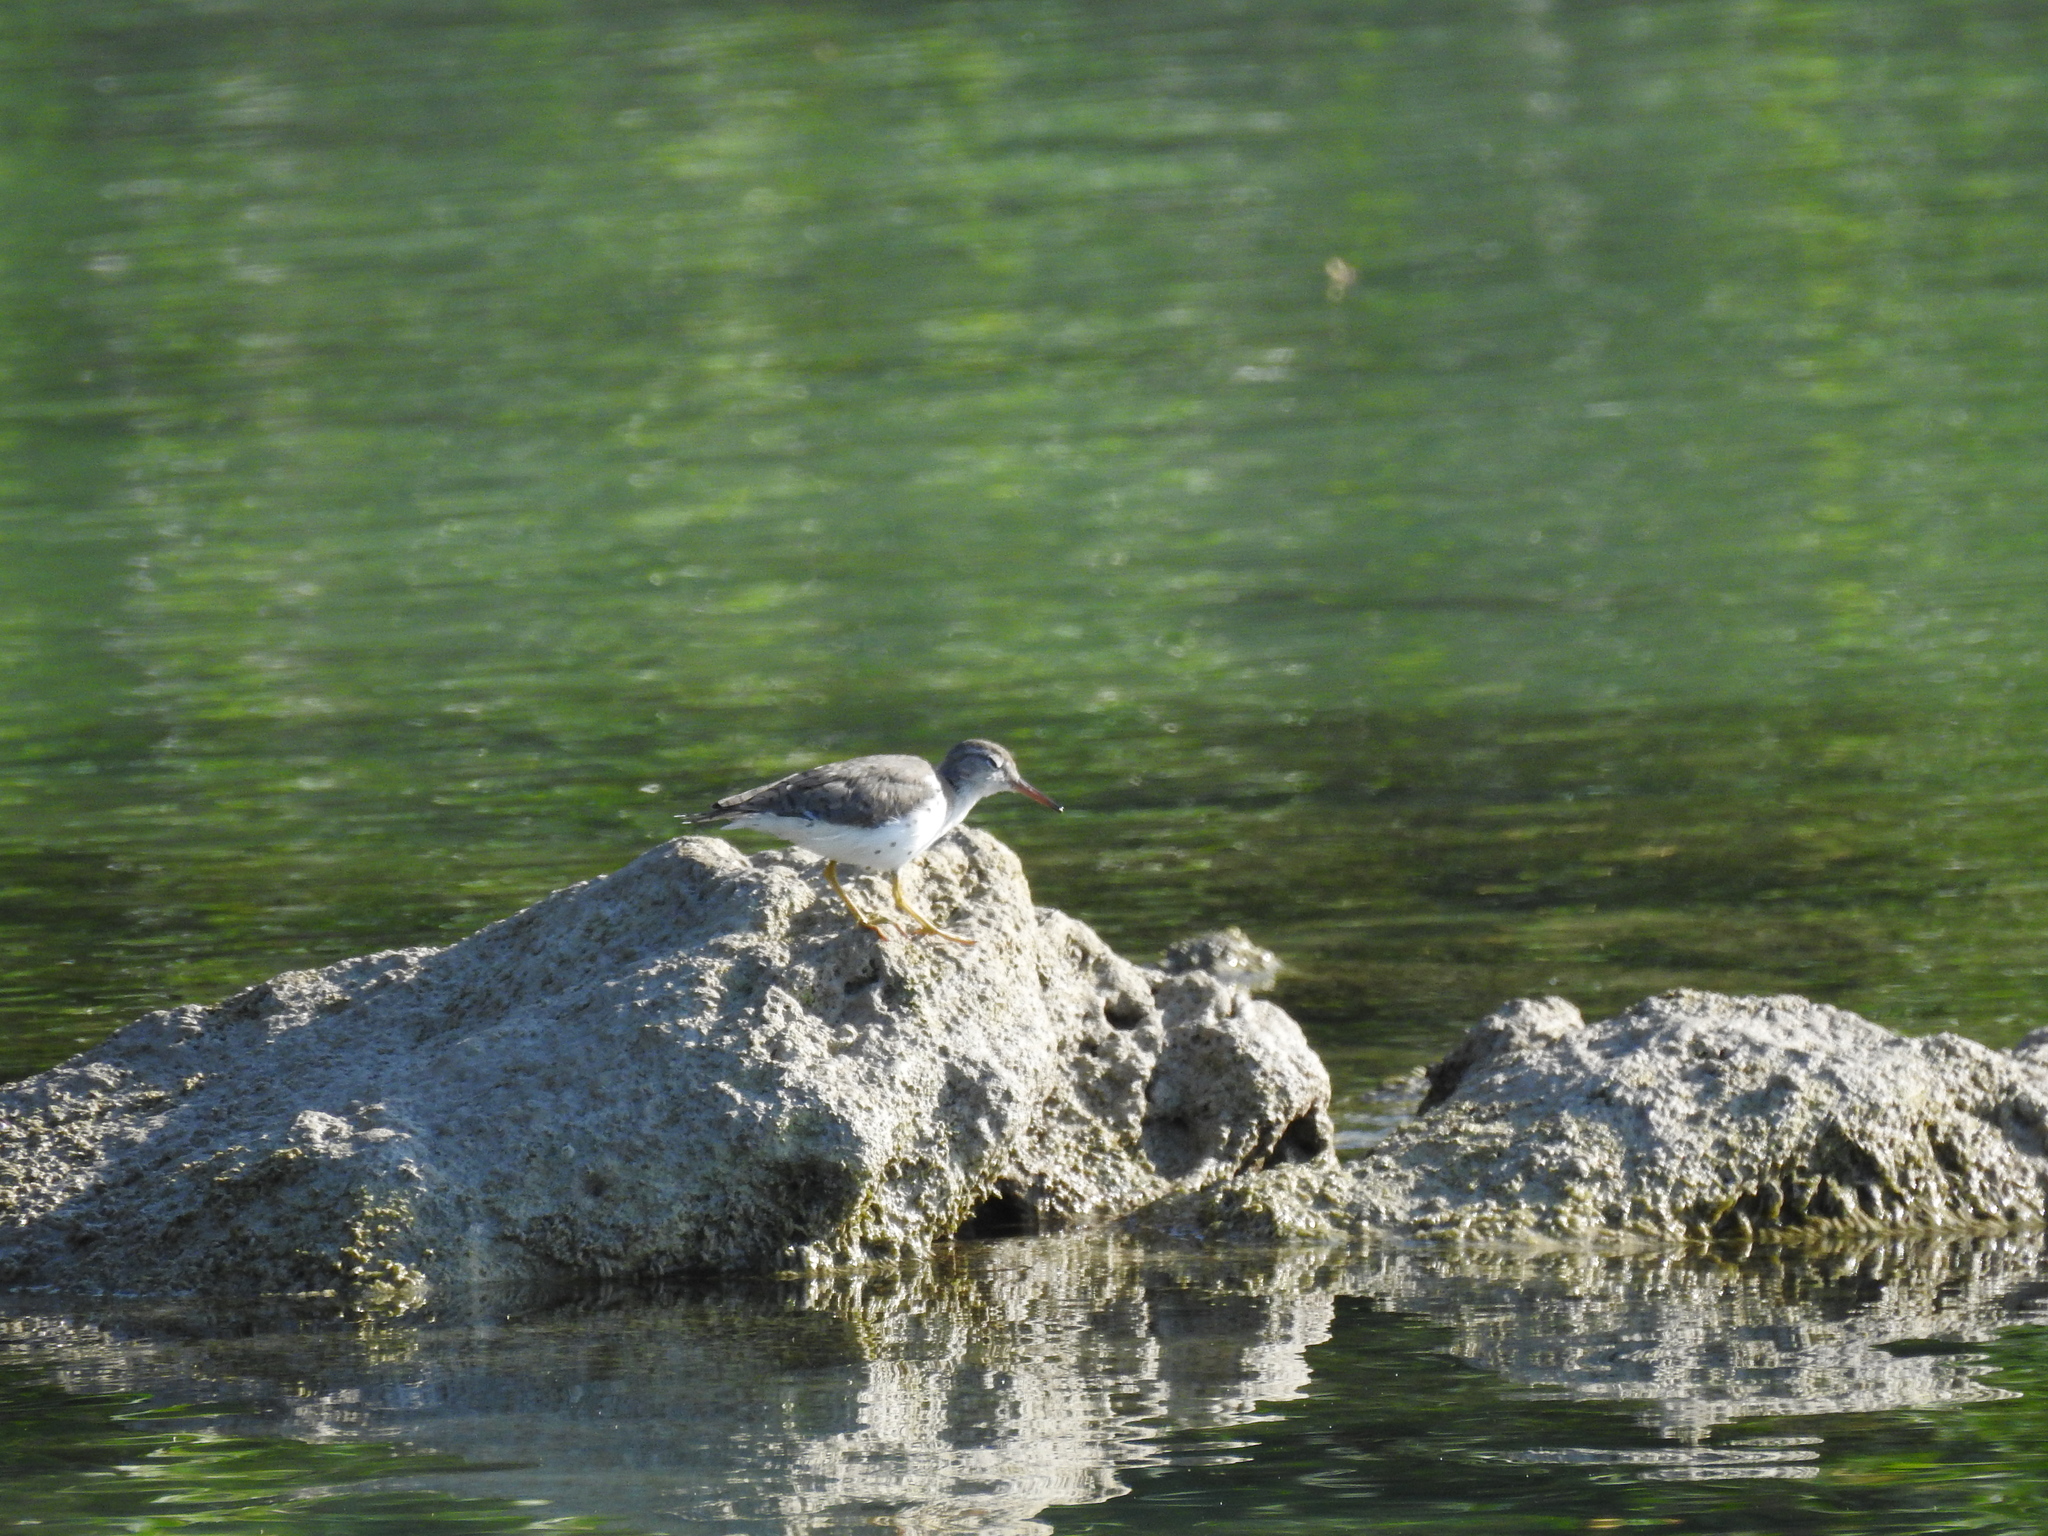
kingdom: Animalia
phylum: Chordata
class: Aves
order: Charadriiformes
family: Scolopacidae
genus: Actitis
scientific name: Actitis macularius
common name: Spotted sandpiper
